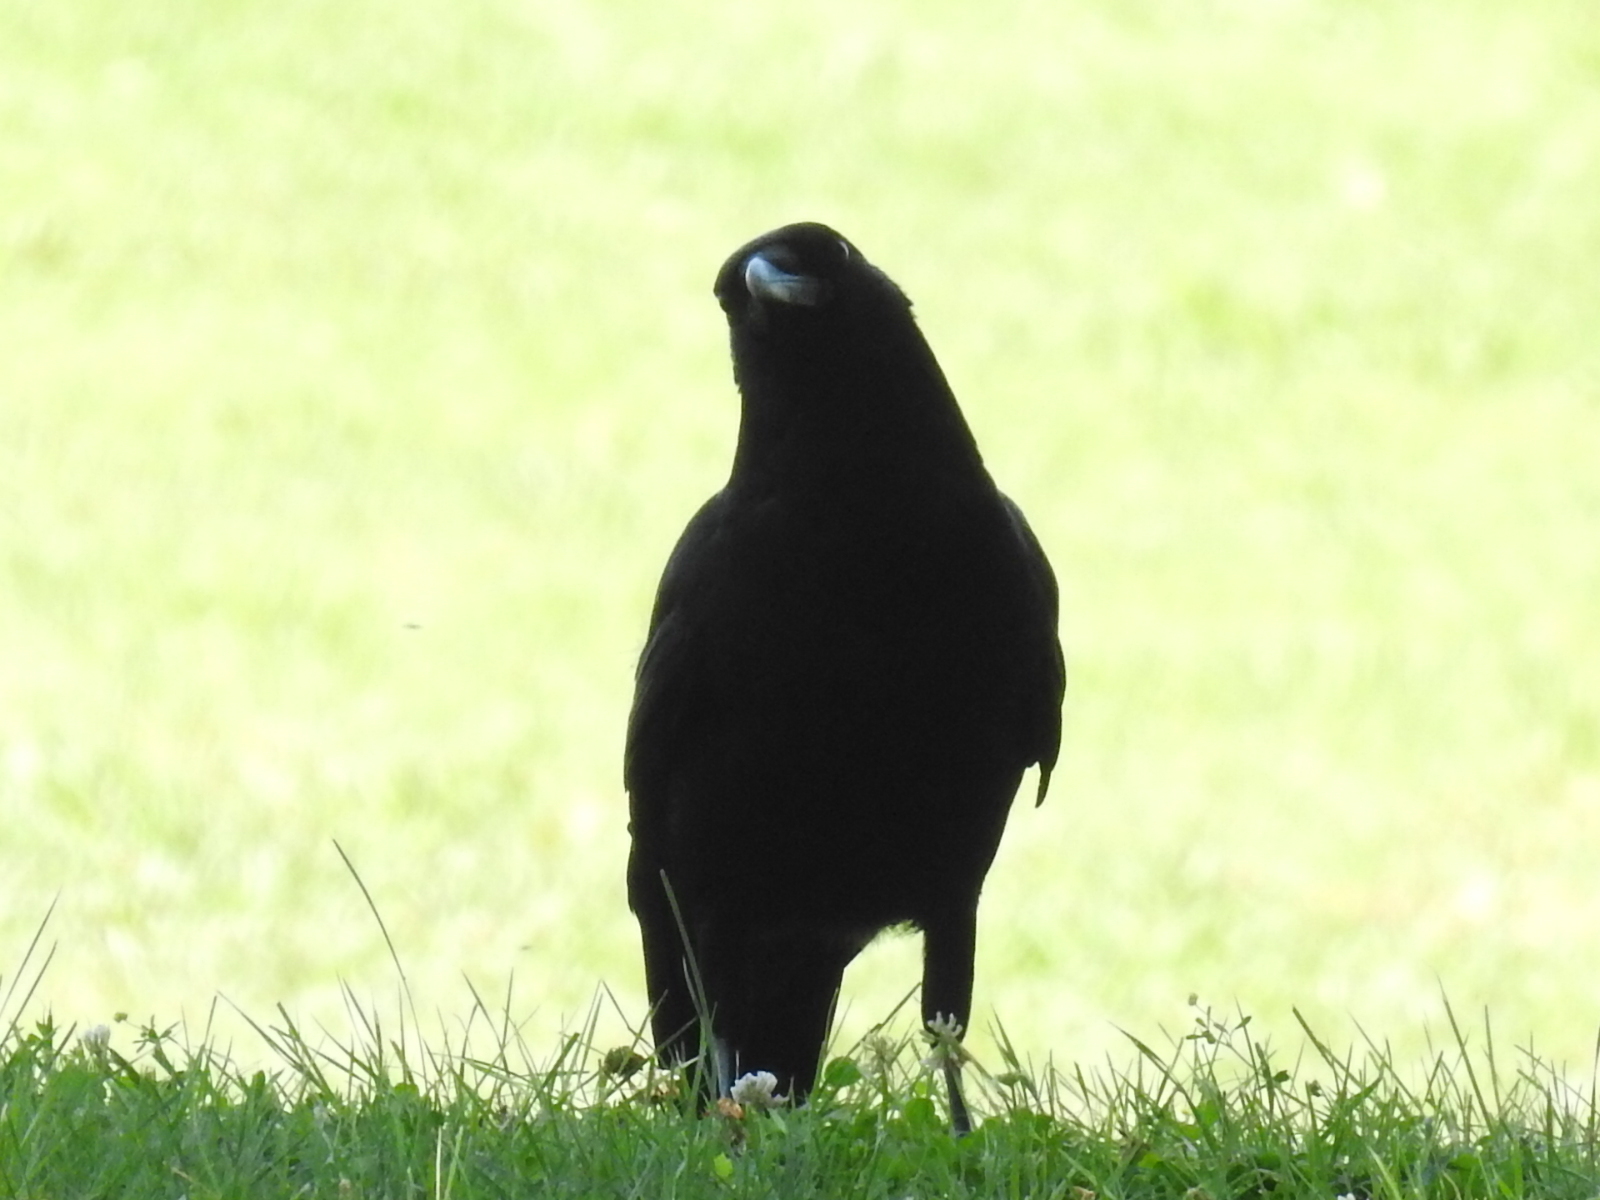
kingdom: Animalia
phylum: Chordata
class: Aves
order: Passeriformes
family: Corvidae
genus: Corvus
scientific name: Corvus brachyrhynchos
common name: American crow
